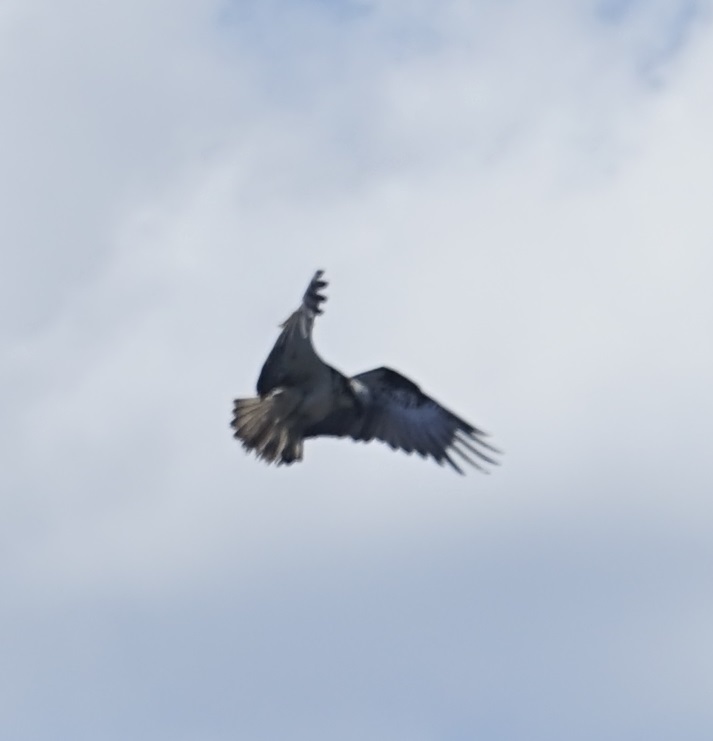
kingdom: Animalia
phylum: Chordata
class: Aves
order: Accipitriformes
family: Pandionidae
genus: Pandion
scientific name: Pandion cristatus
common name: Eastern osprey
